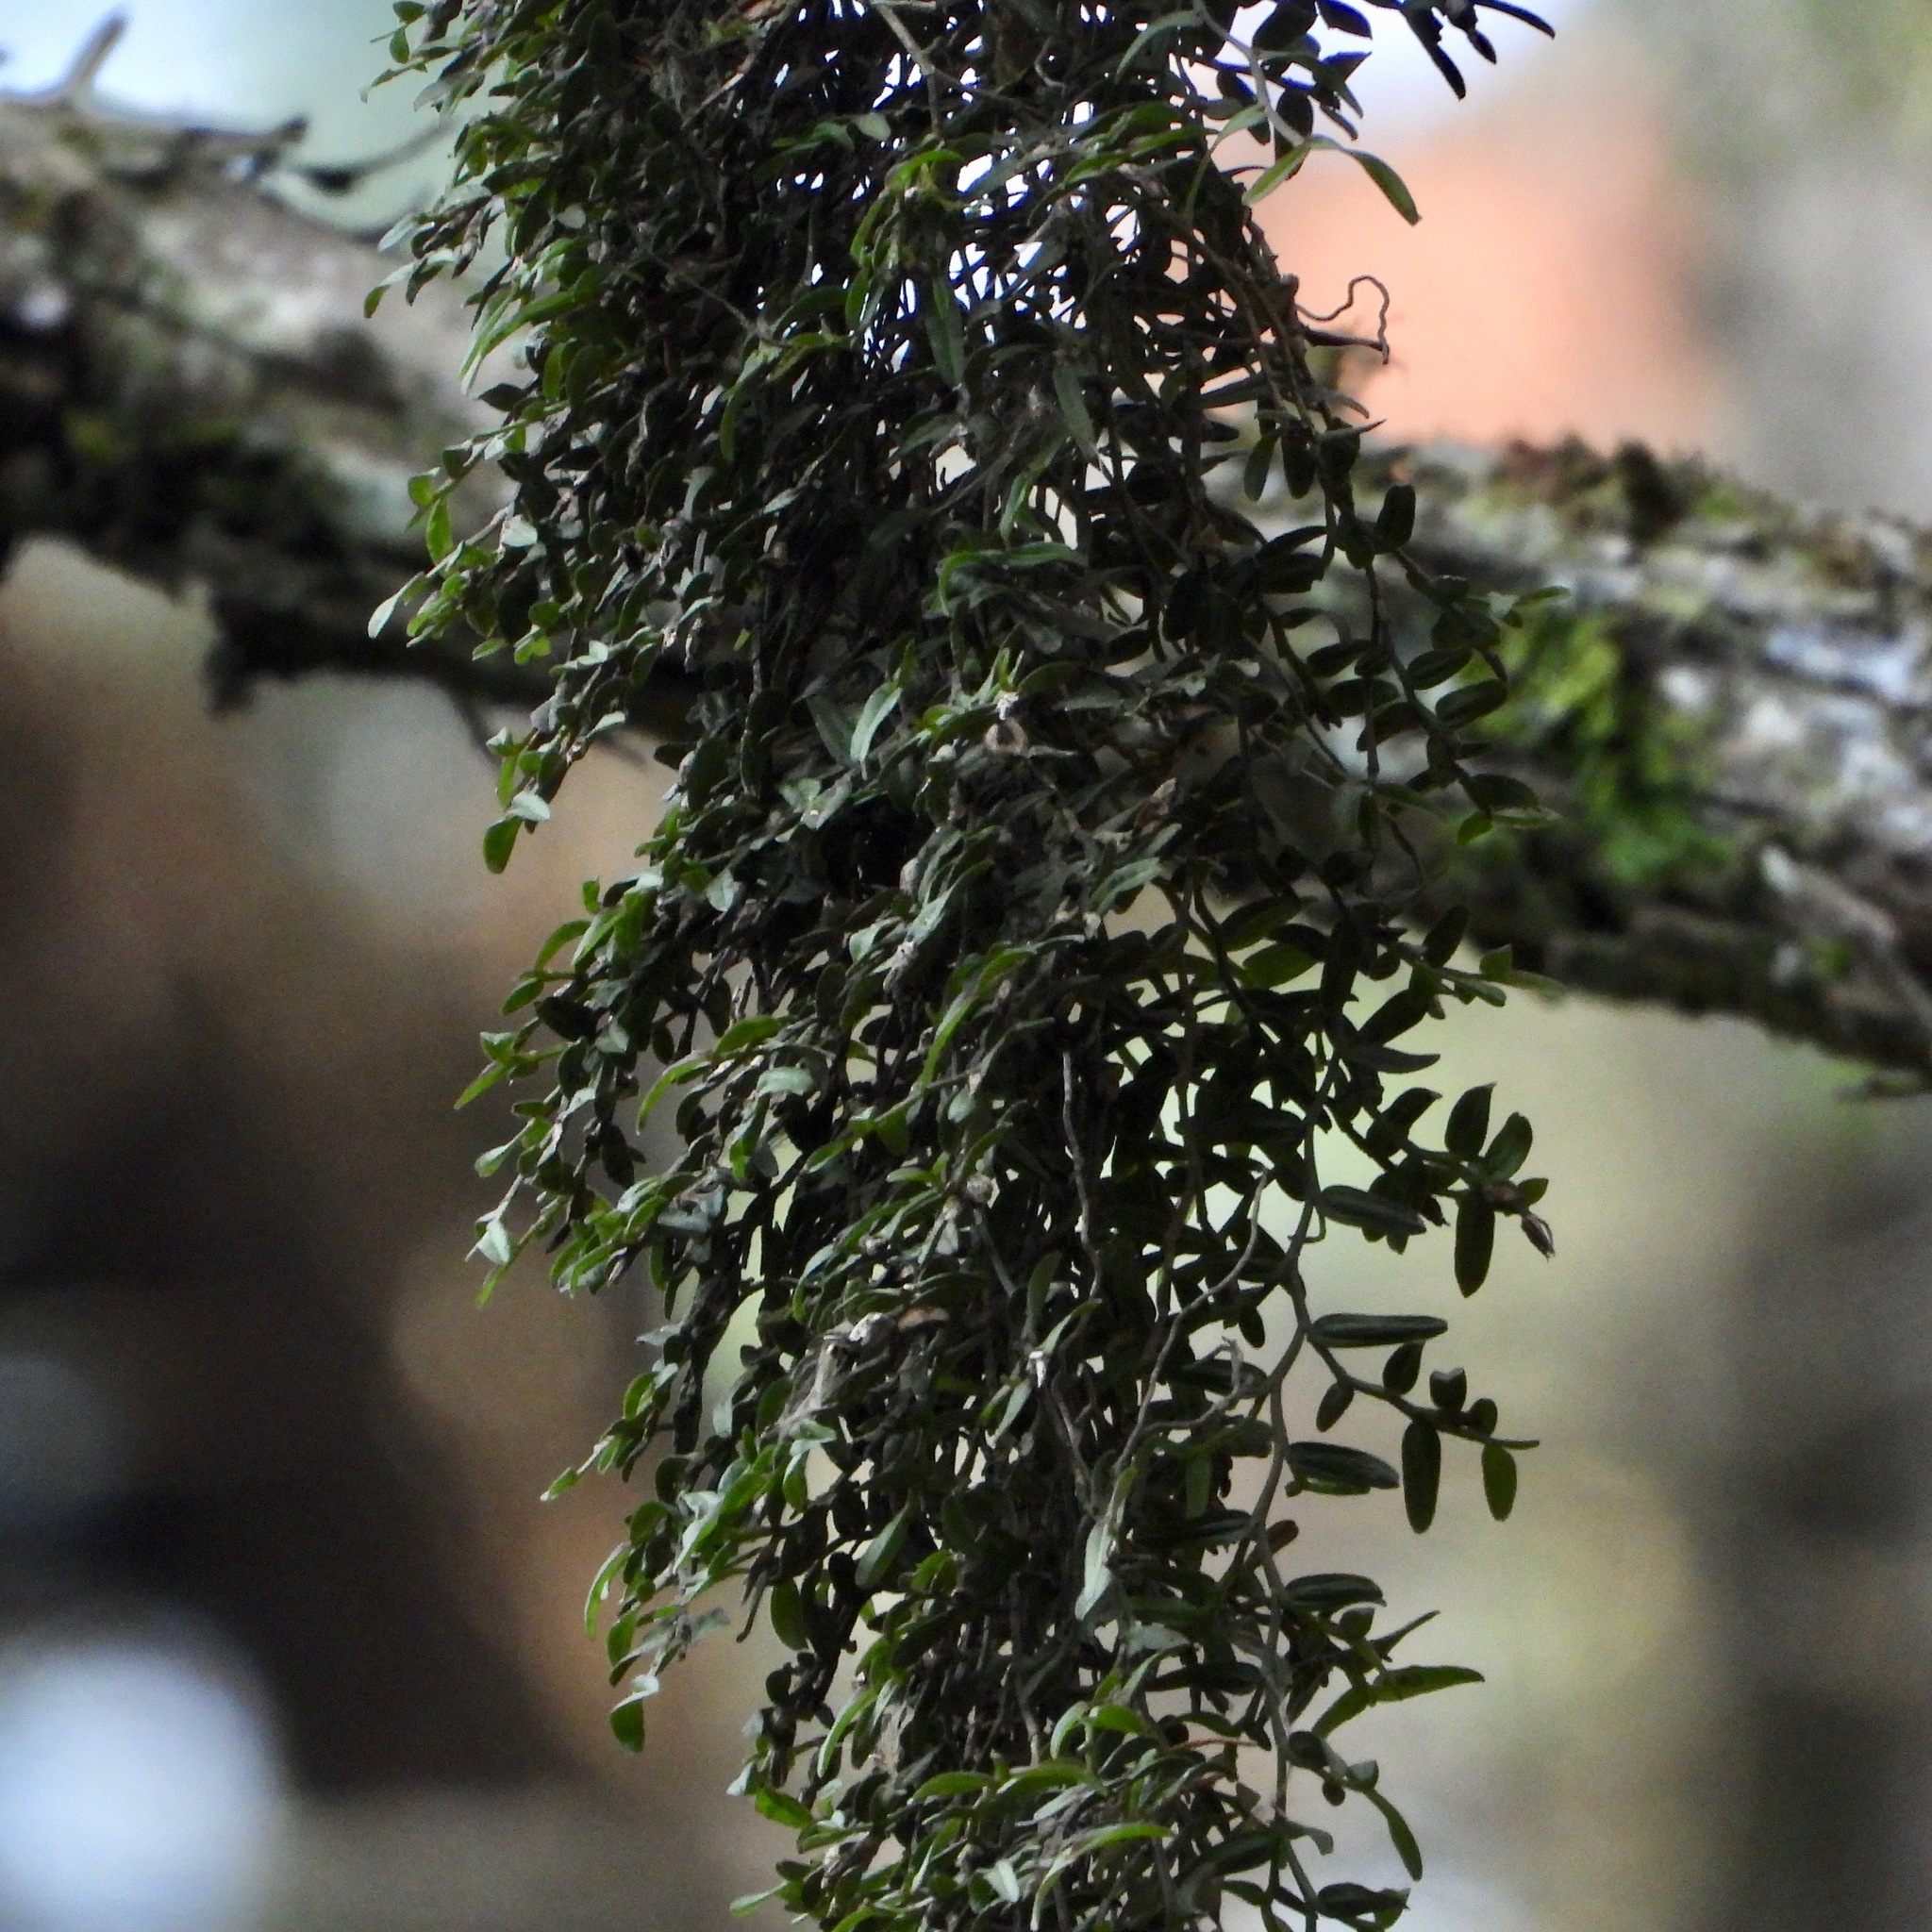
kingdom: Plantae
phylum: Tracheophyta
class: Liliopsida
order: Asparagales
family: Orchidaceae
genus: Epidendrum
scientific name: Epidendrum repens
